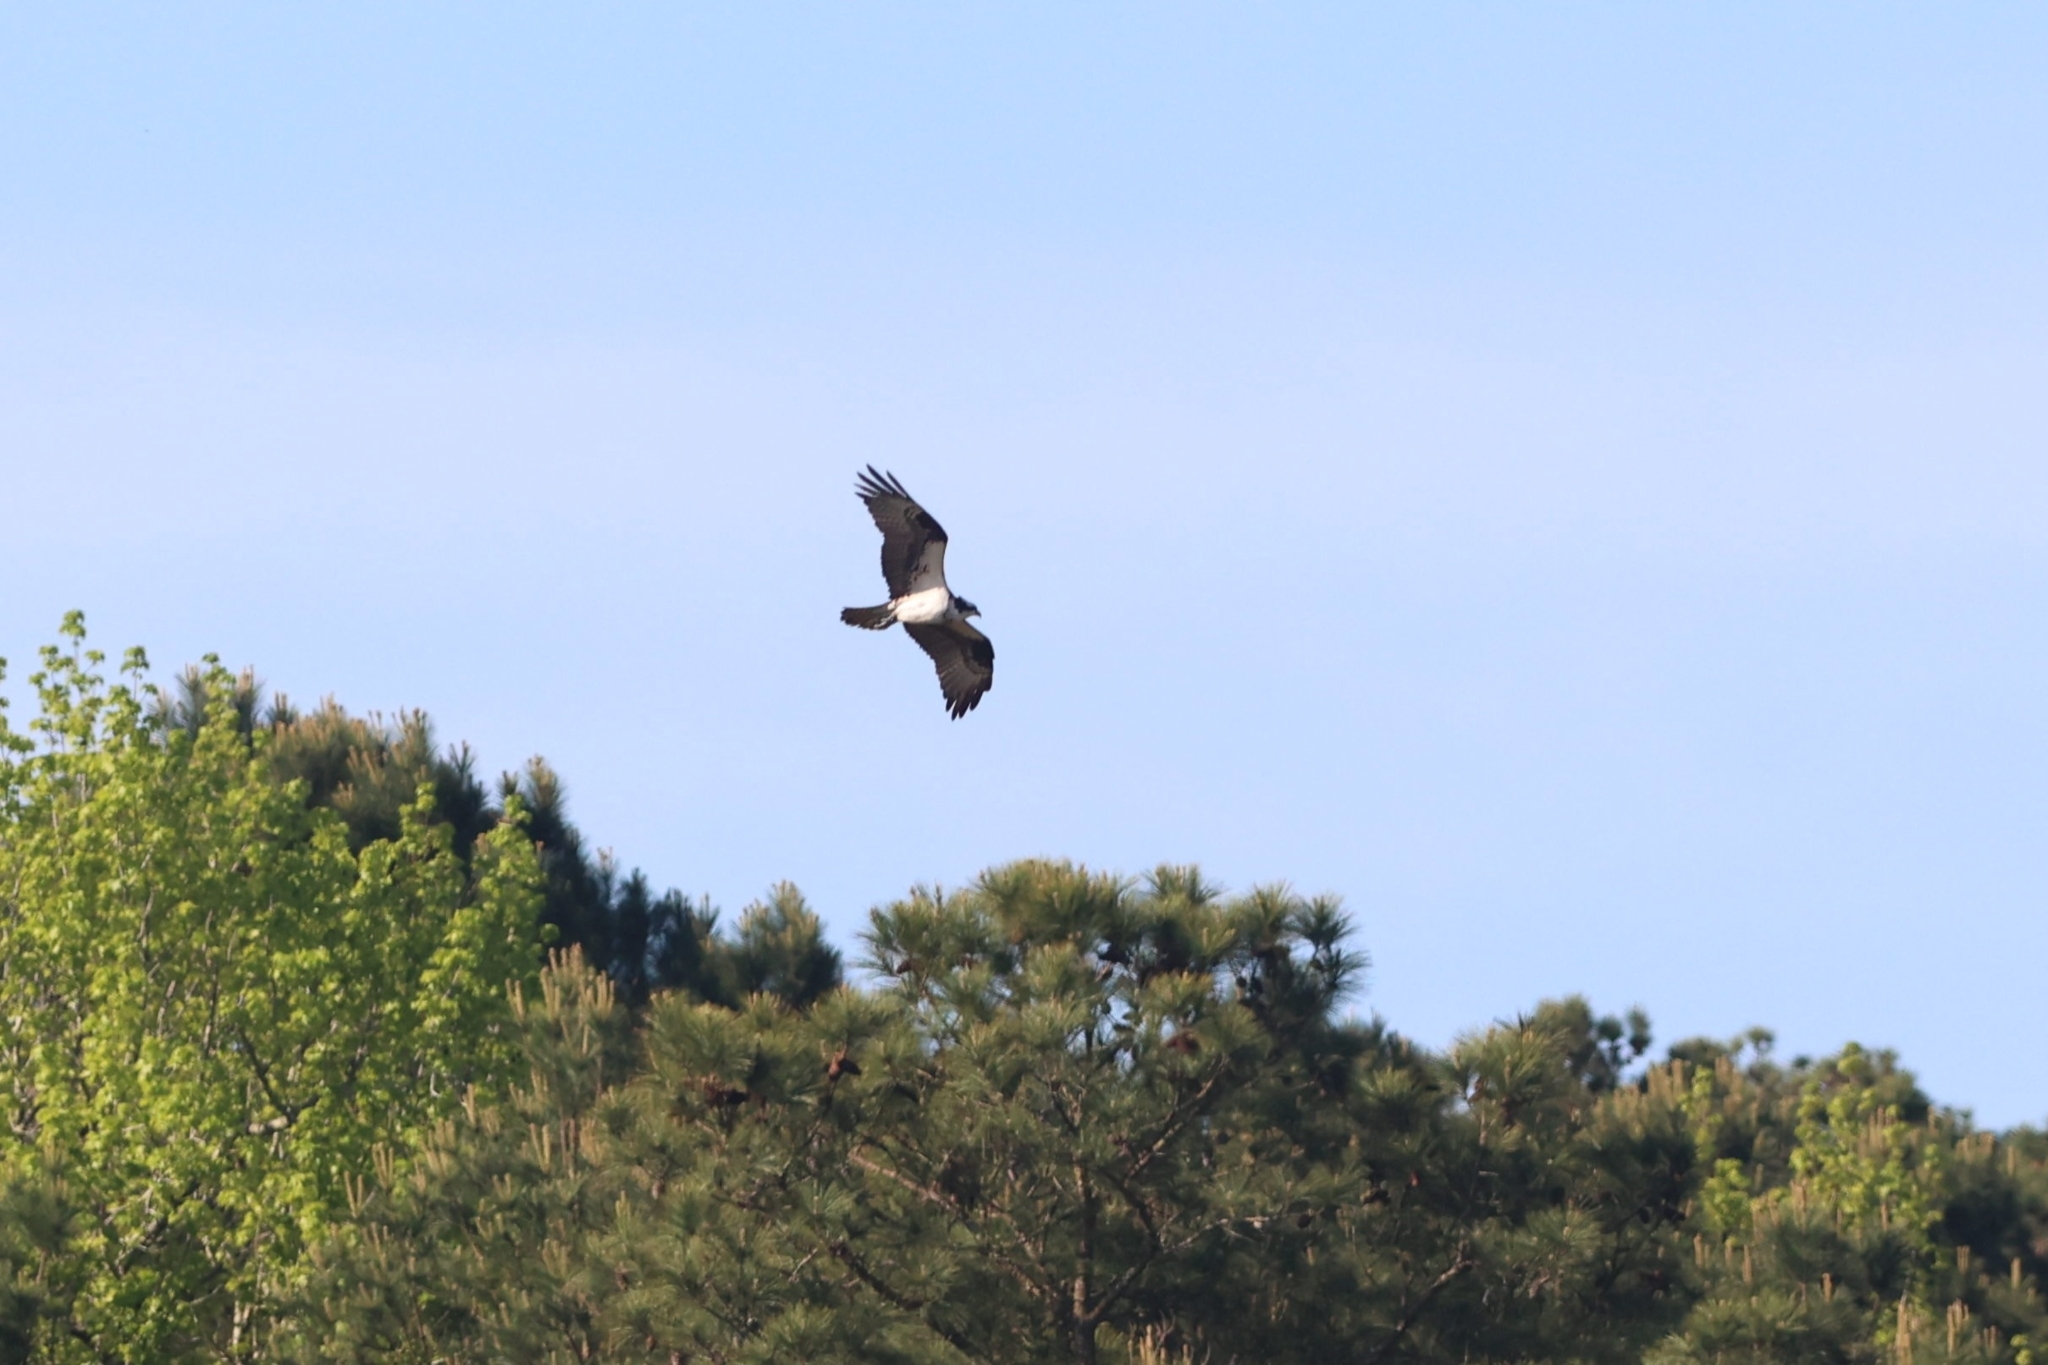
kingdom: Animalia
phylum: Chordata
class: Aves
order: Accipitriformes
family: Pandionidae
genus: Pandion
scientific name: Pandion haliaetus
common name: Osprey
